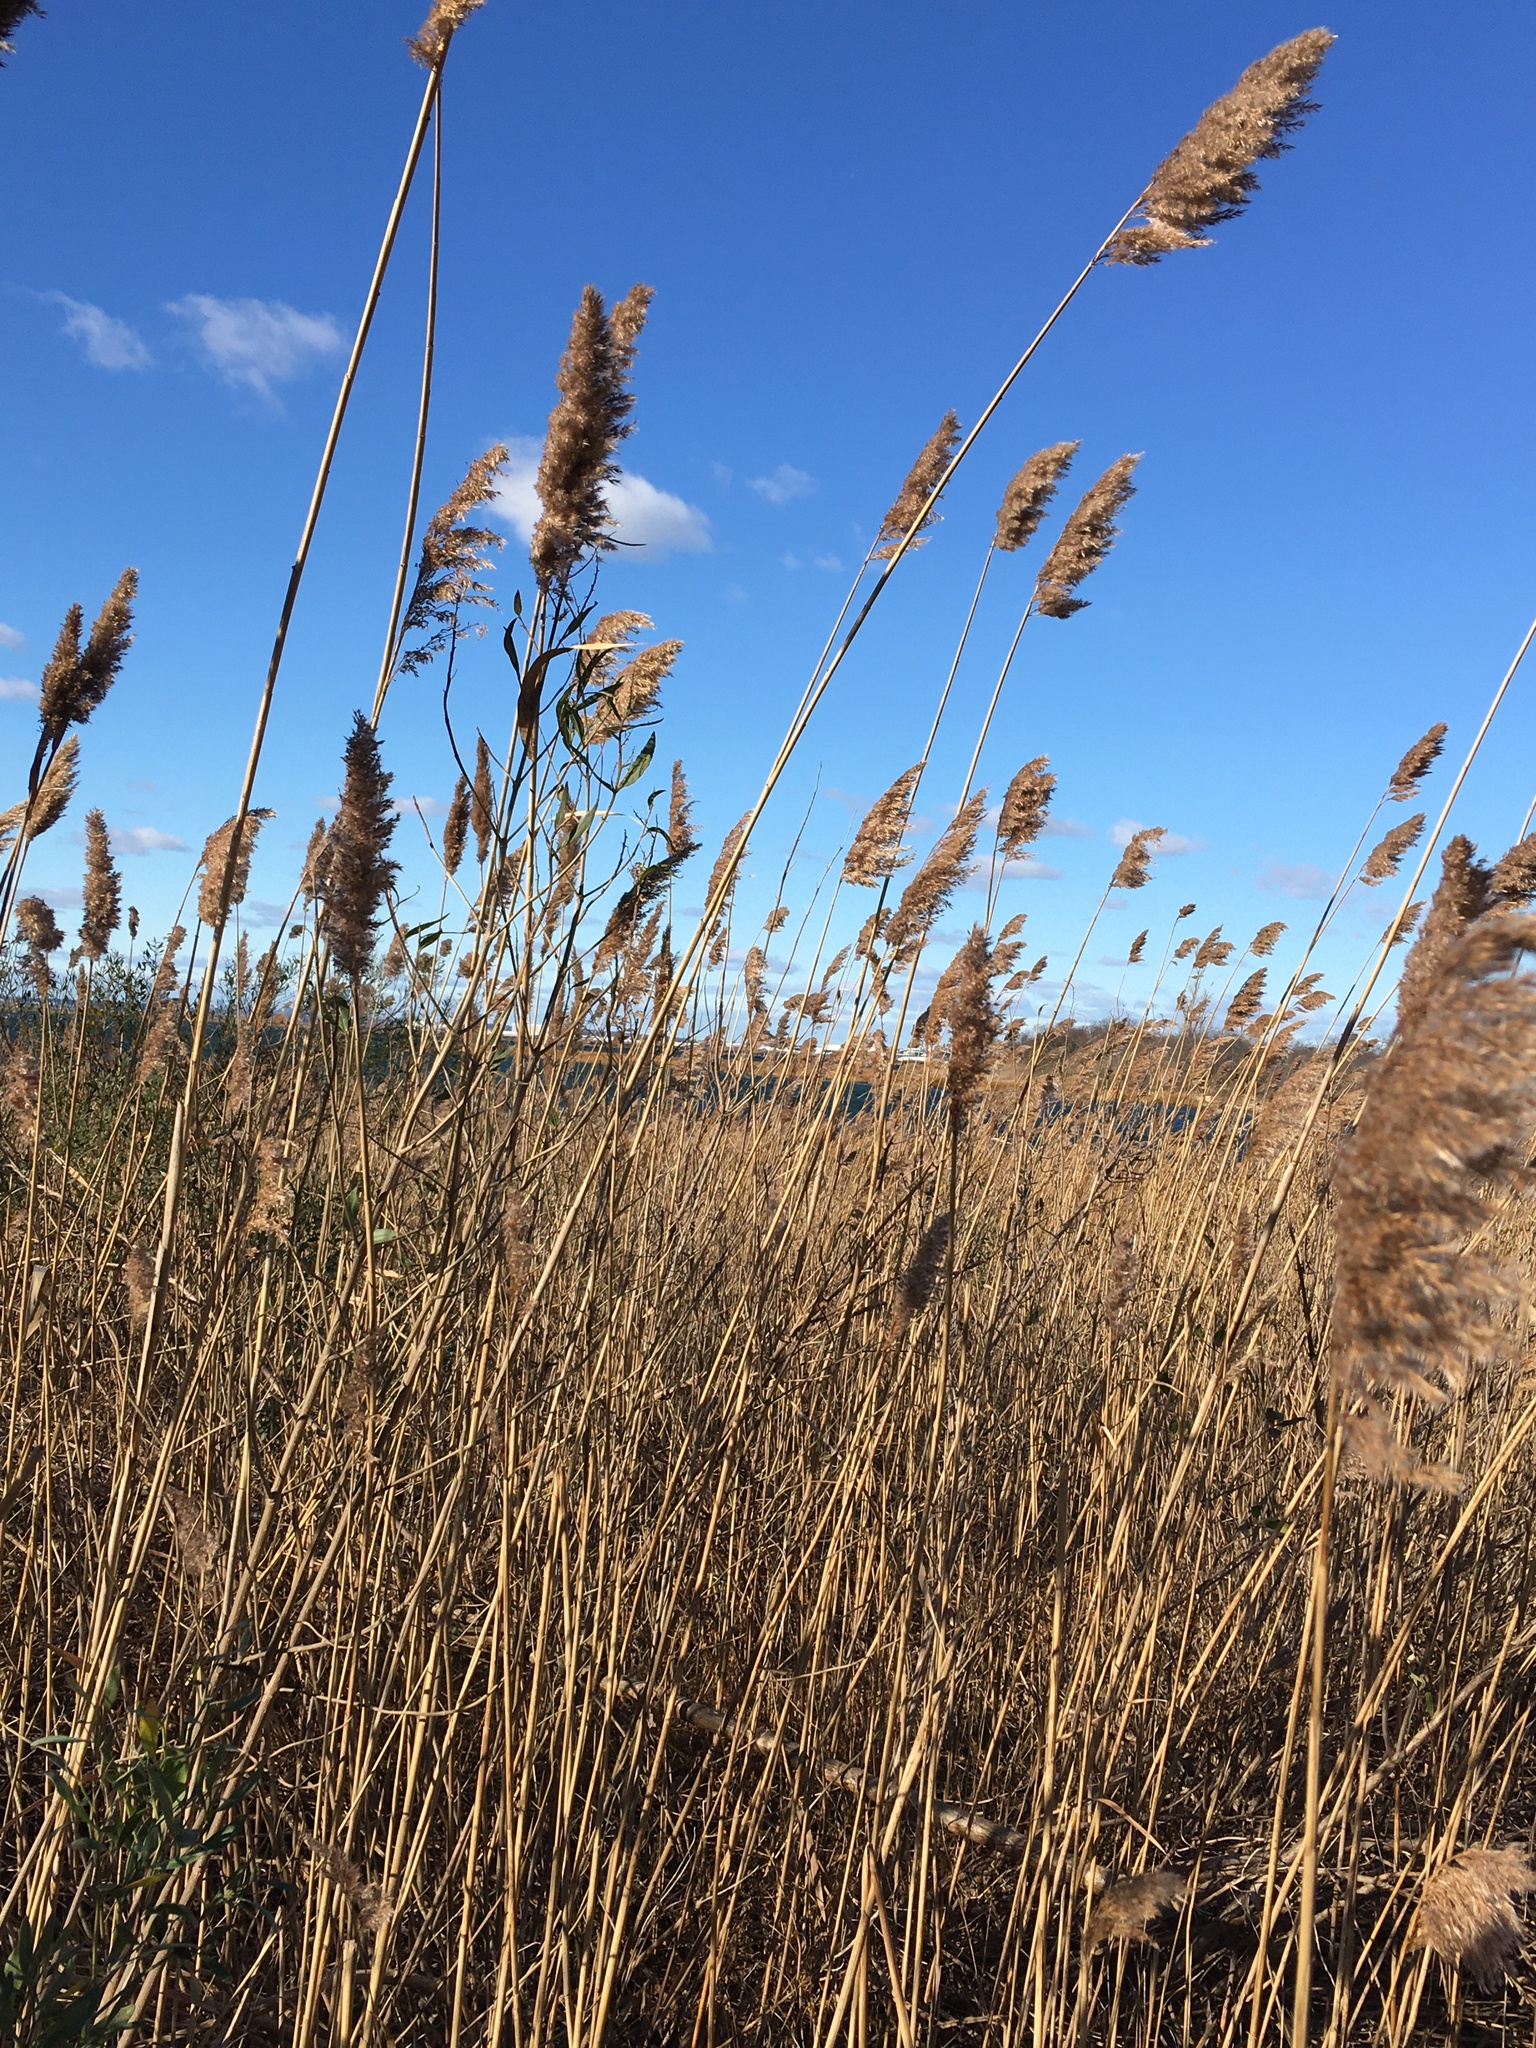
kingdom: Plantae
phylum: Tracheophyta
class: Liliopsida
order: Poales
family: Poaceae
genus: Phragmites
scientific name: Phragmites australis
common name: Common reed
